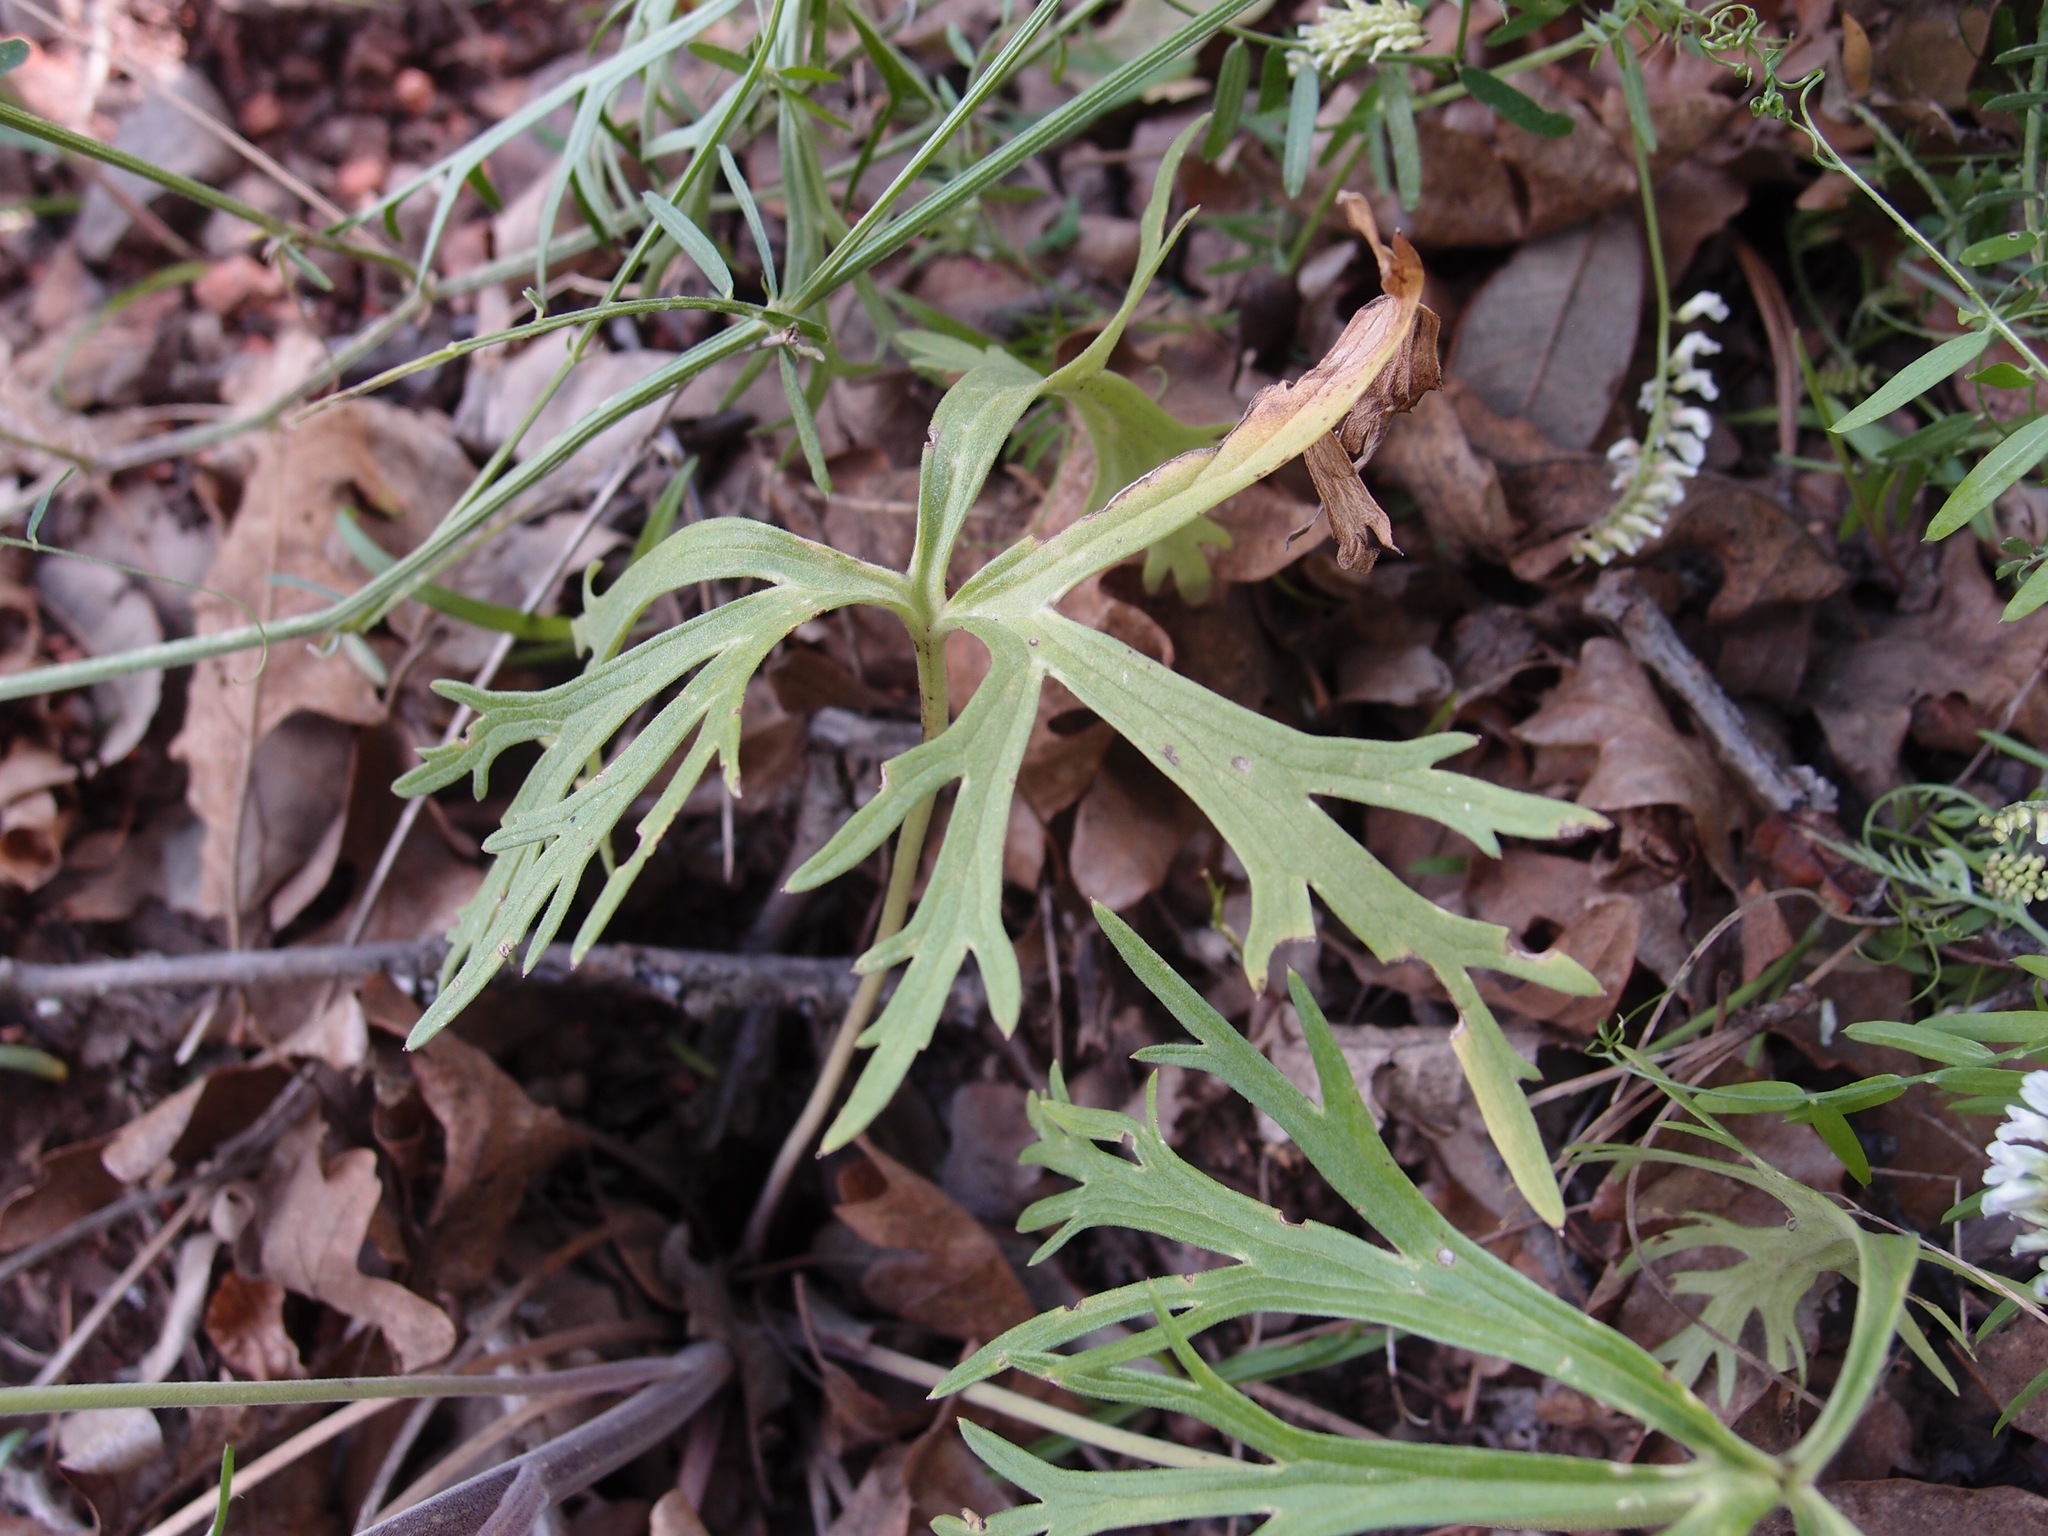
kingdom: Plantae
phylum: Tracheophyta
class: Magnoliopsida
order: Ranunculales
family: Ranunculaceae
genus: Delphinium
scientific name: Delphinium andesicola
